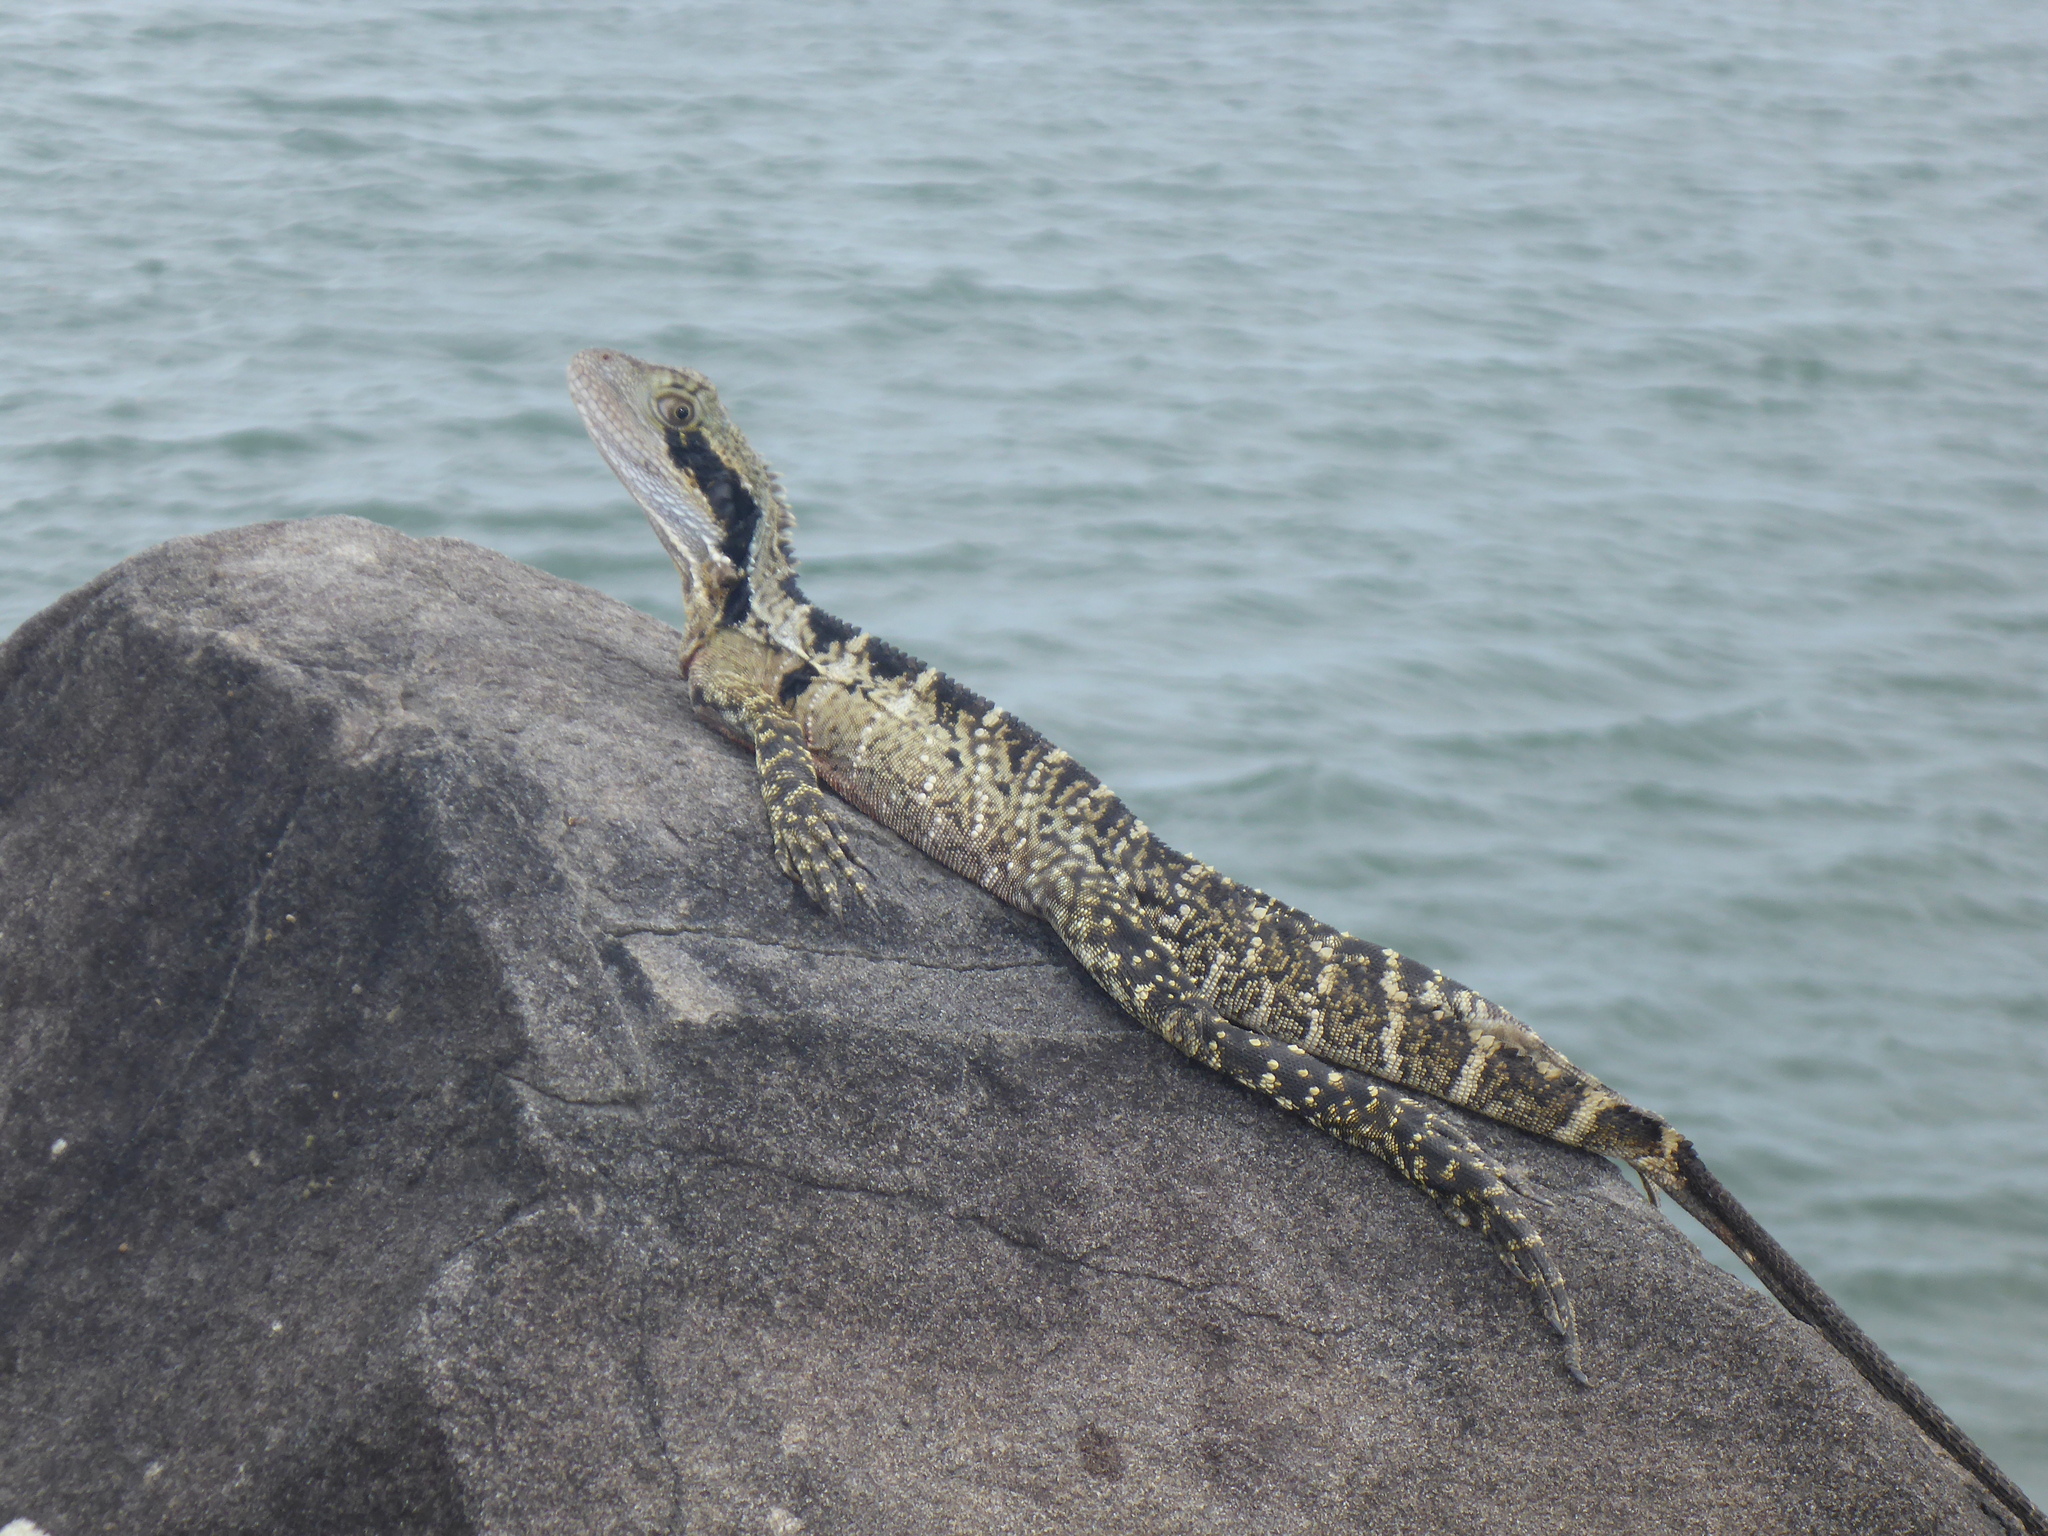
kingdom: Animalia
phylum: Chordata
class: Squamata
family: Agamidae
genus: Intellagama
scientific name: Intellagama lesueurii
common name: Eastern water dragon
